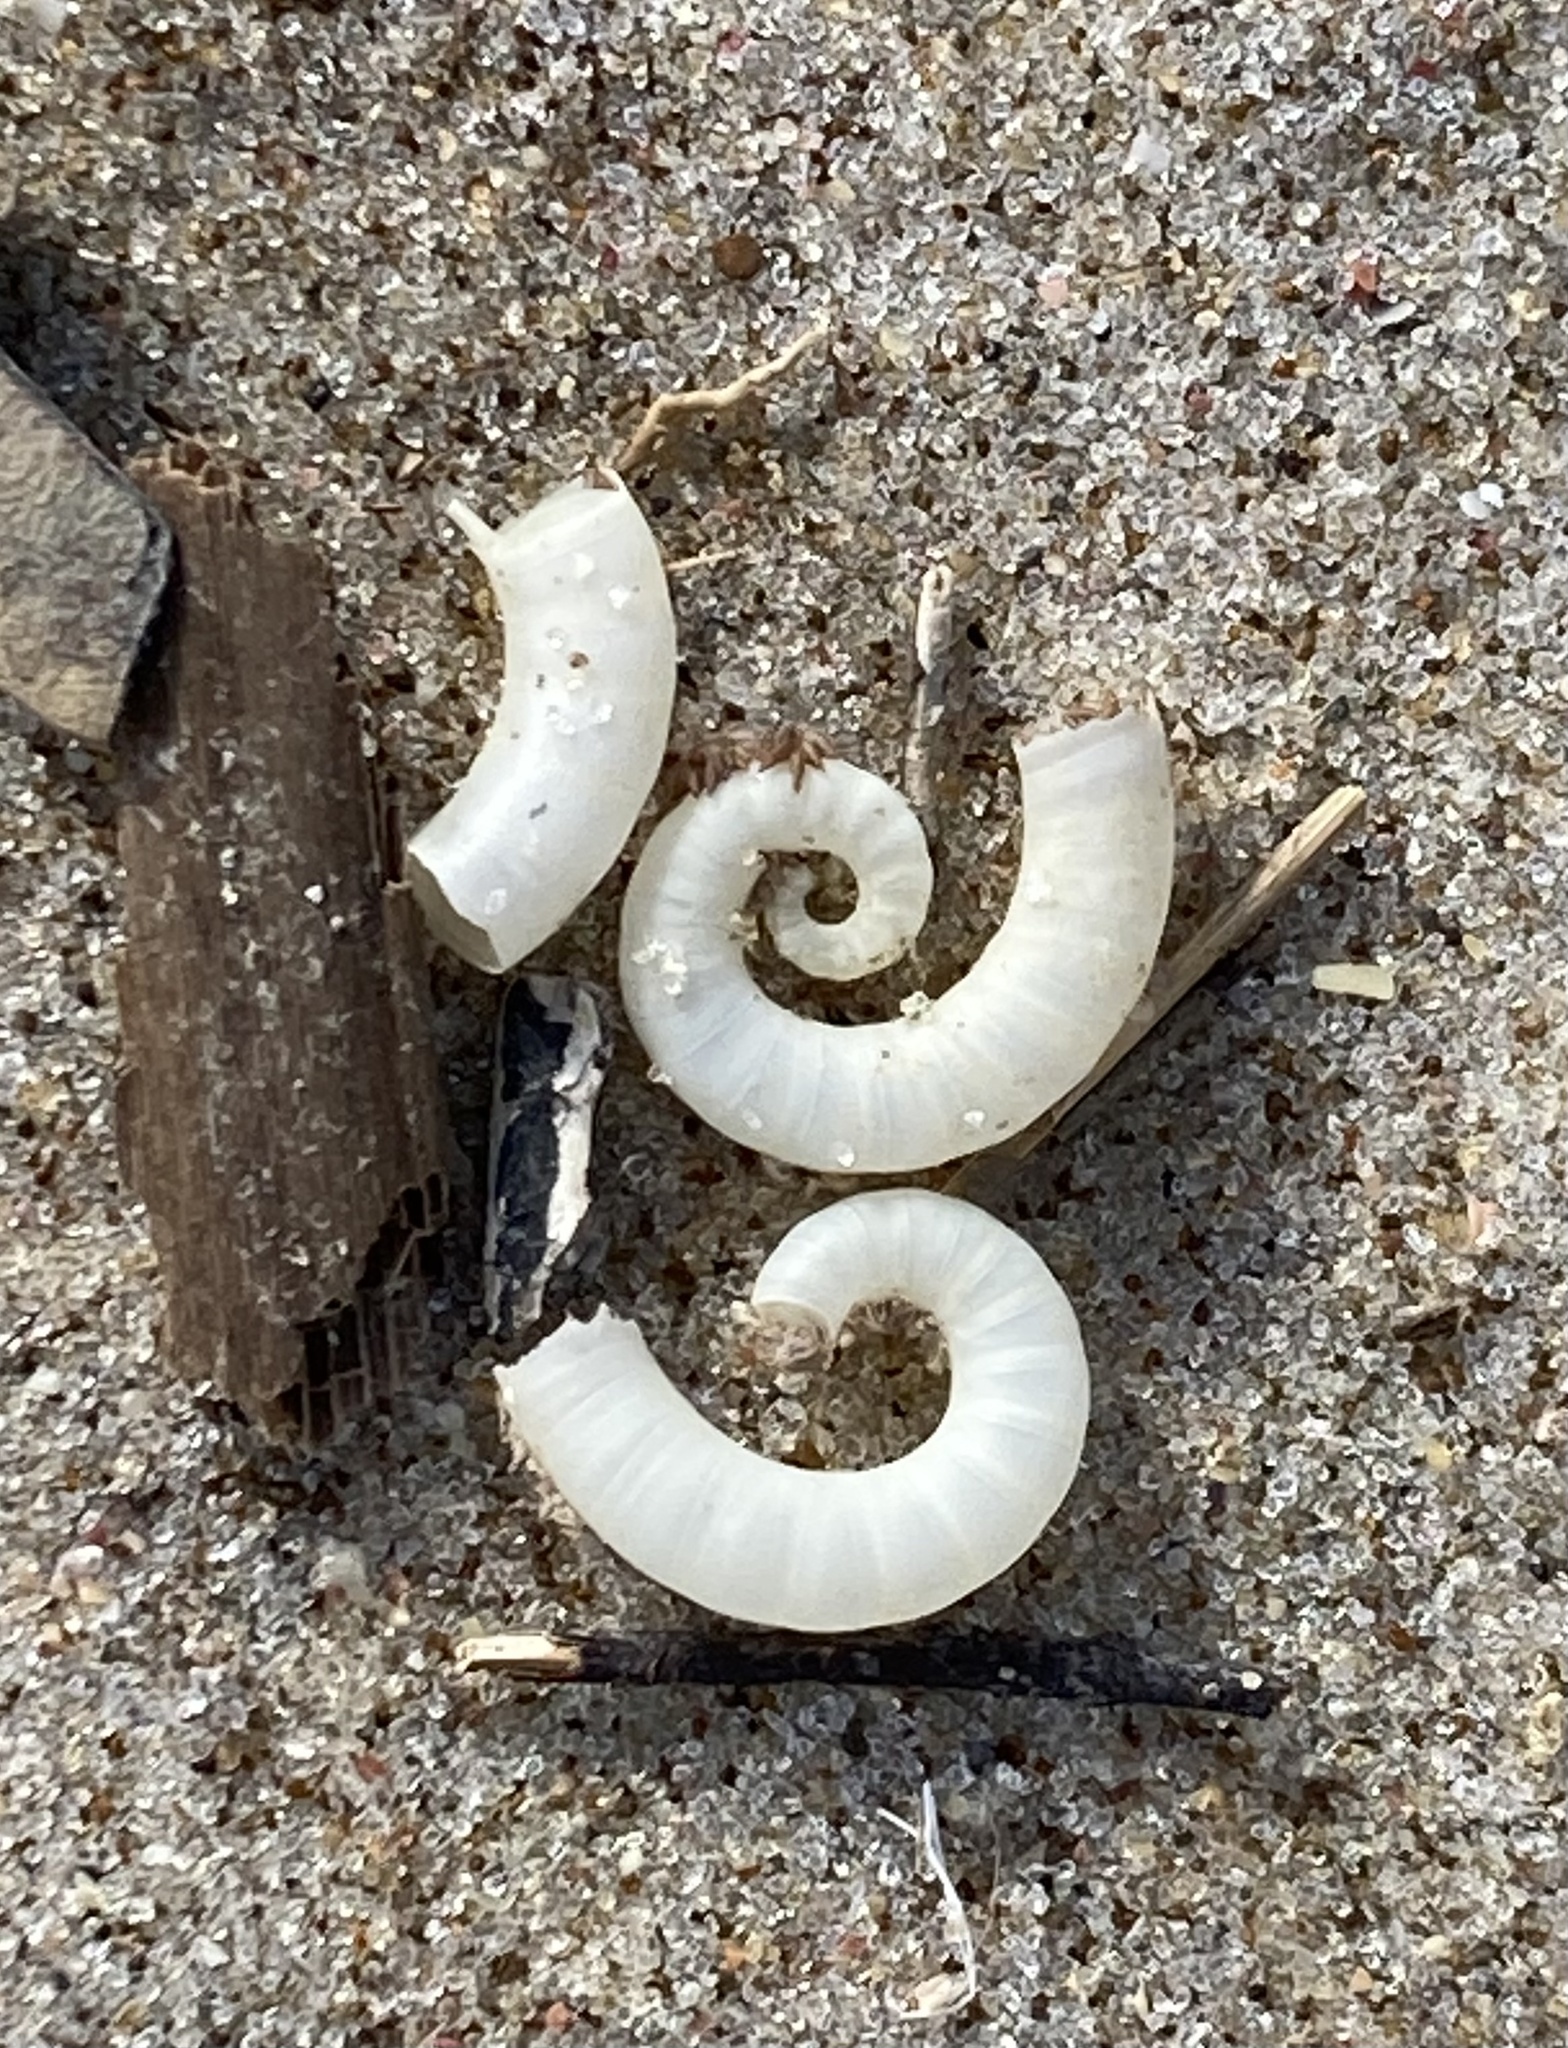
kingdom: Animalia
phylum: Mollusca
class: Cephalopoda
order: Spirulida
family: Spirulidae
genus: Spirula
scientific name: Spirula spirula
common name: Ram's horn squid
